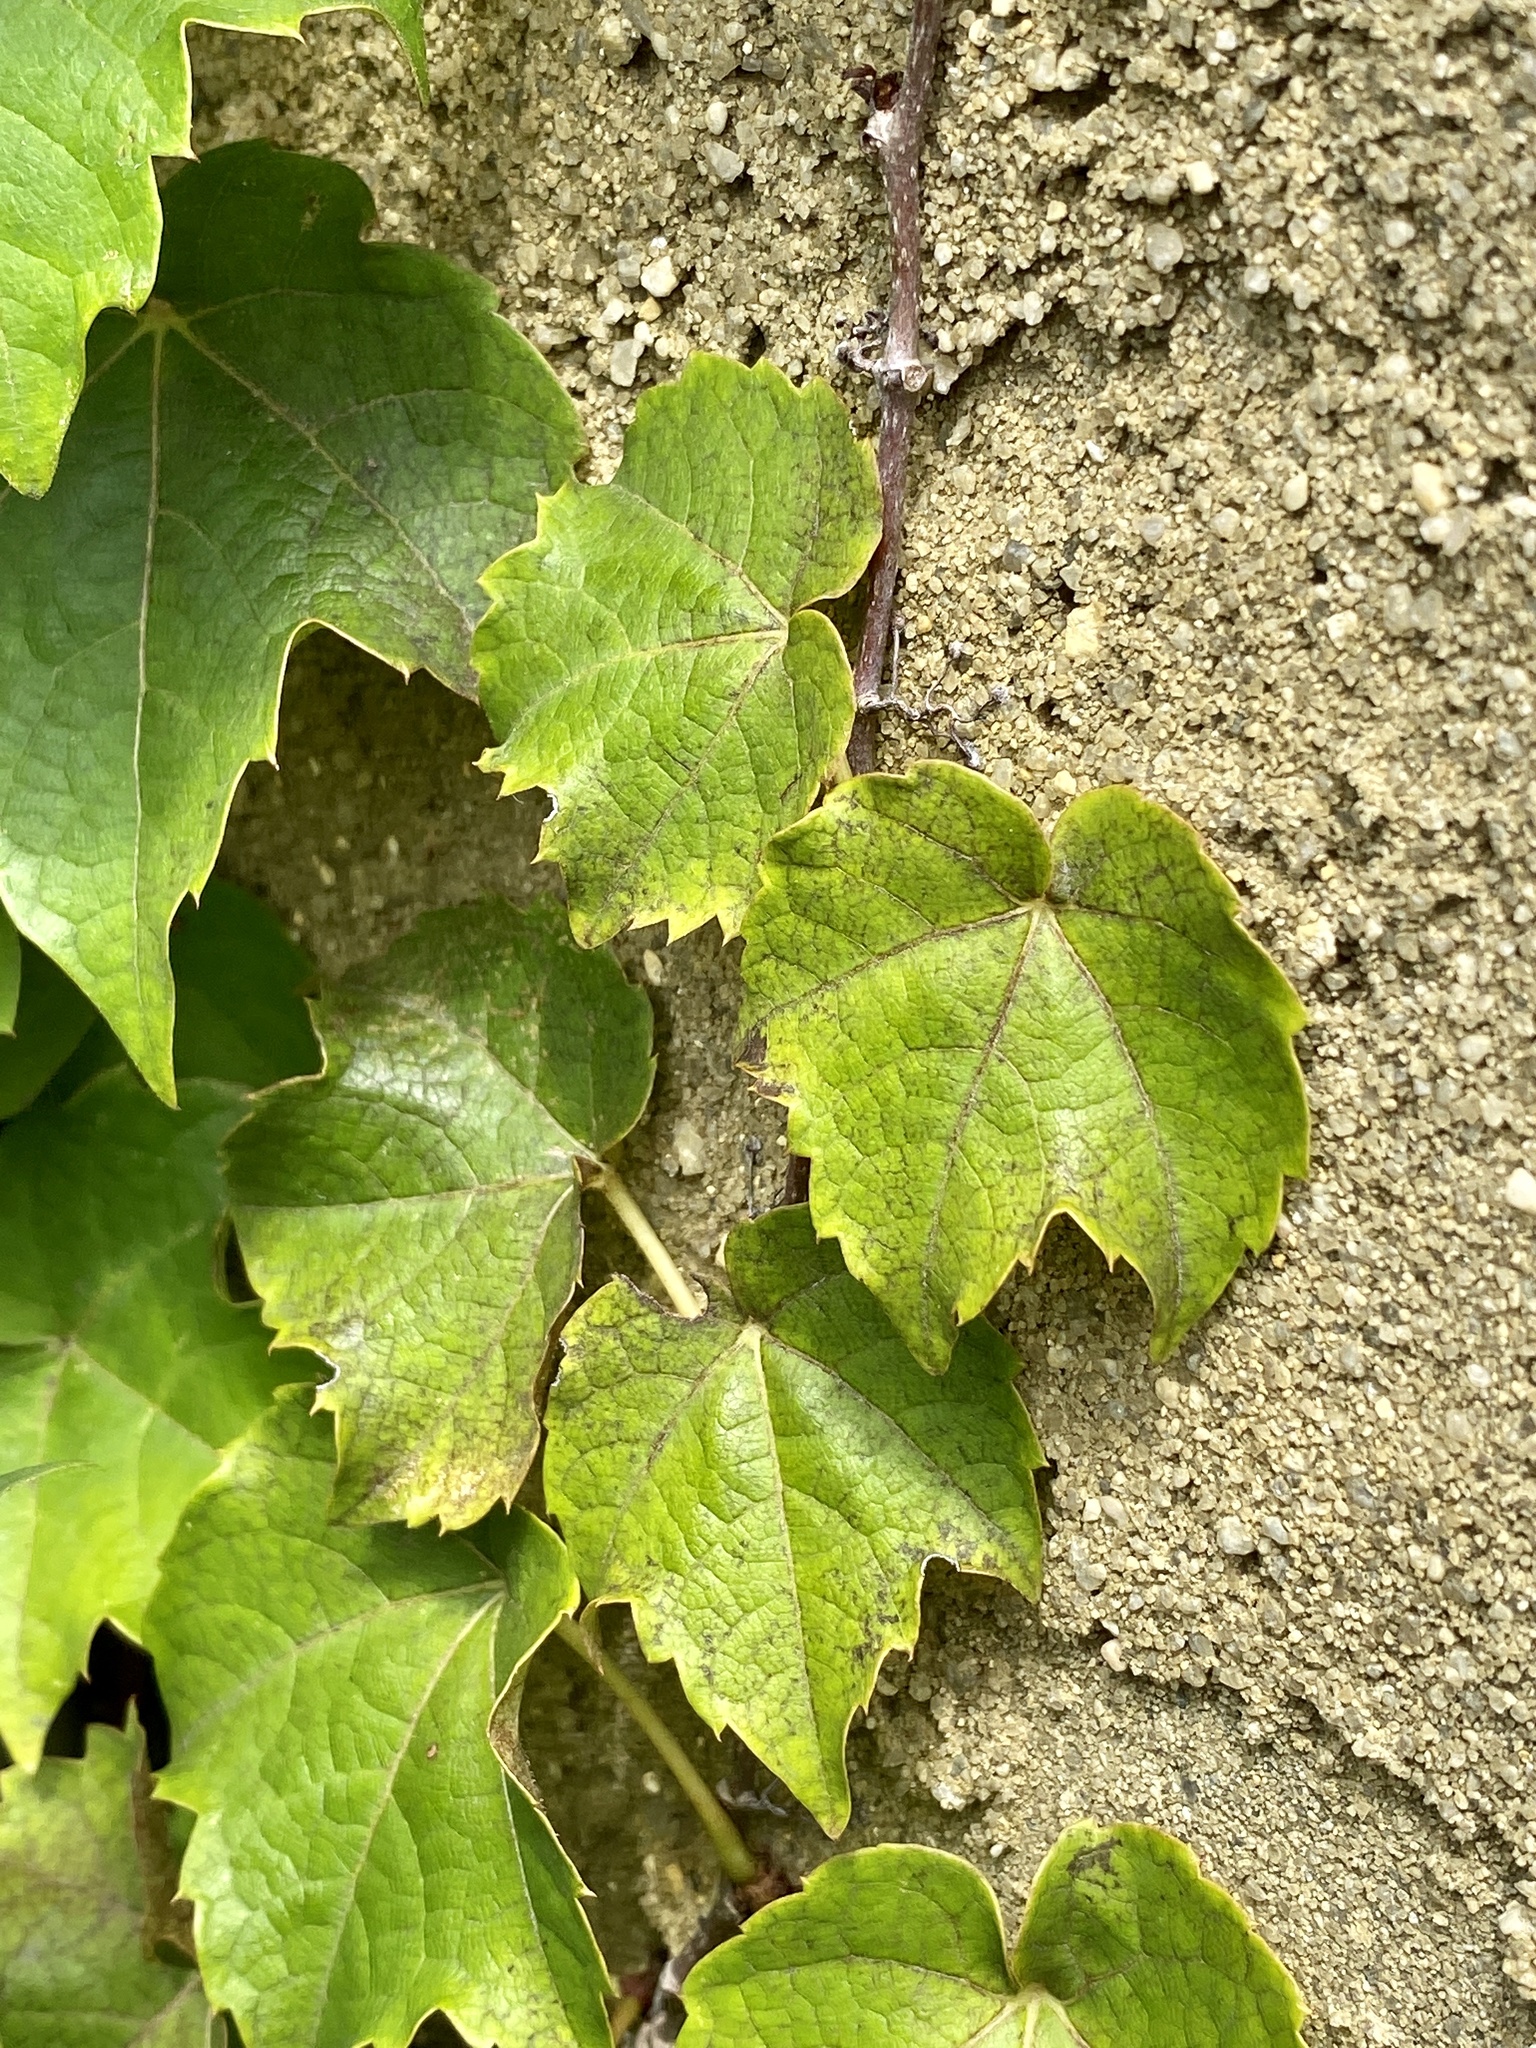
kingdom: Plantae
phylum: Tracheophyta
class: Magnoliopsida
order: Vitales
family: Vitaceae
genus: Parthenocissus
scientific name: Parthenocissus tricuspidata
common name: Boston ivy
